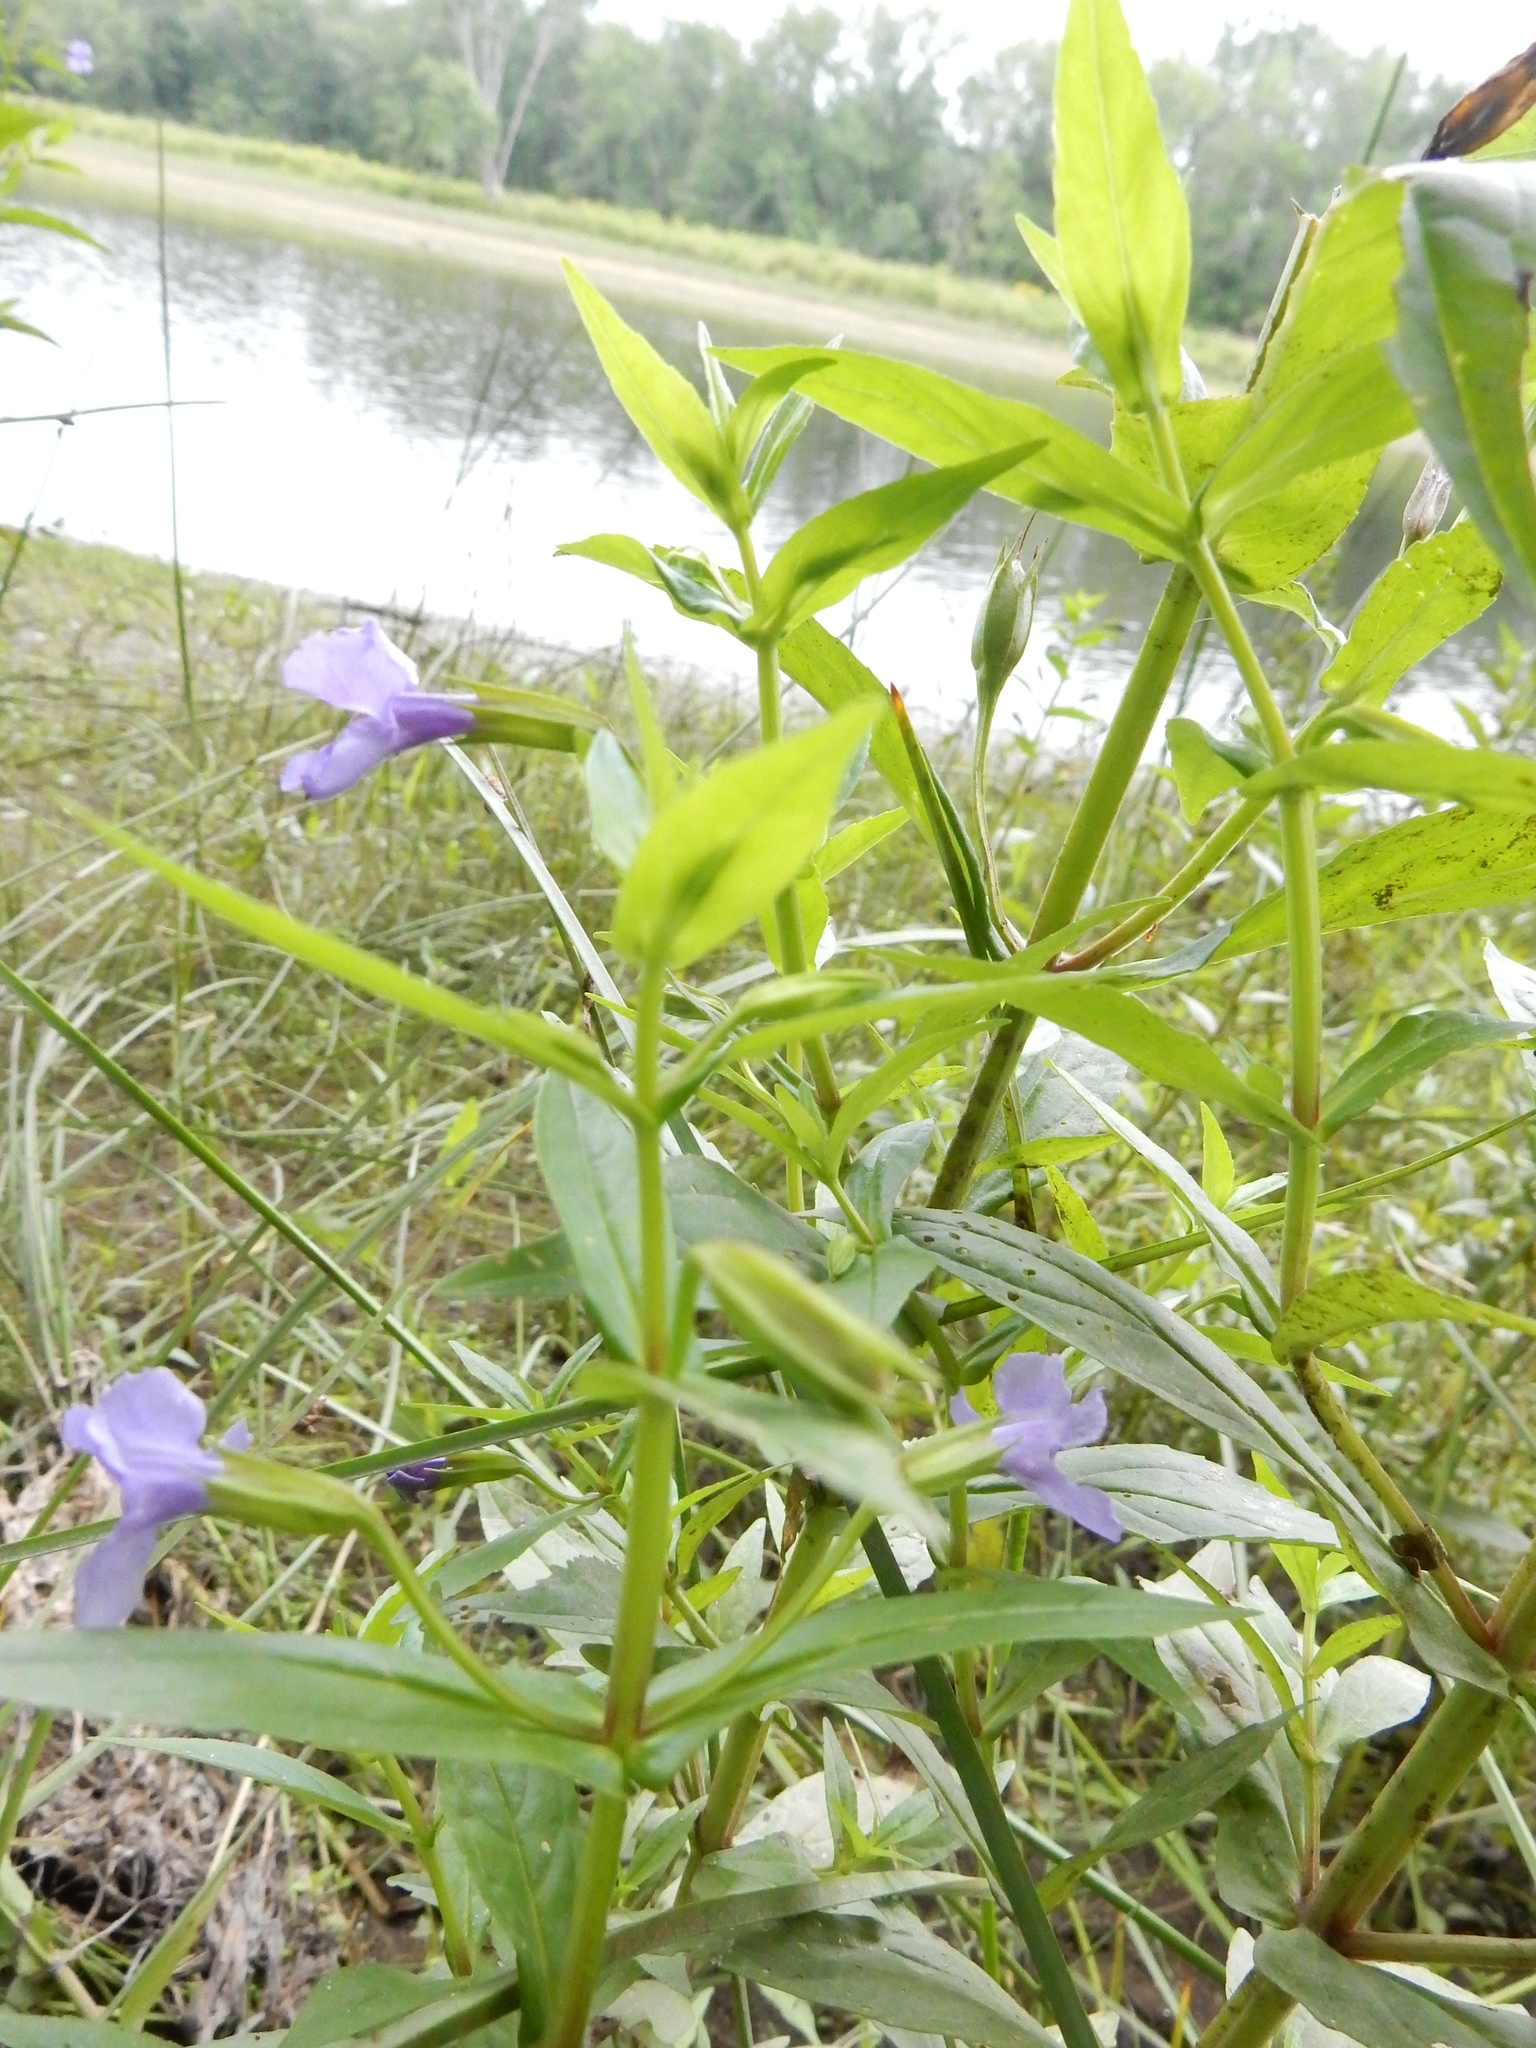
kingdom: Plantae
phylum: Tracheophyta
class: Magnoliopsida
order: Lamiales
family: Phrymaceae
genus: Mimulus
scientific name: Mimulus ringens
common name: Allegheny monkeyflower
